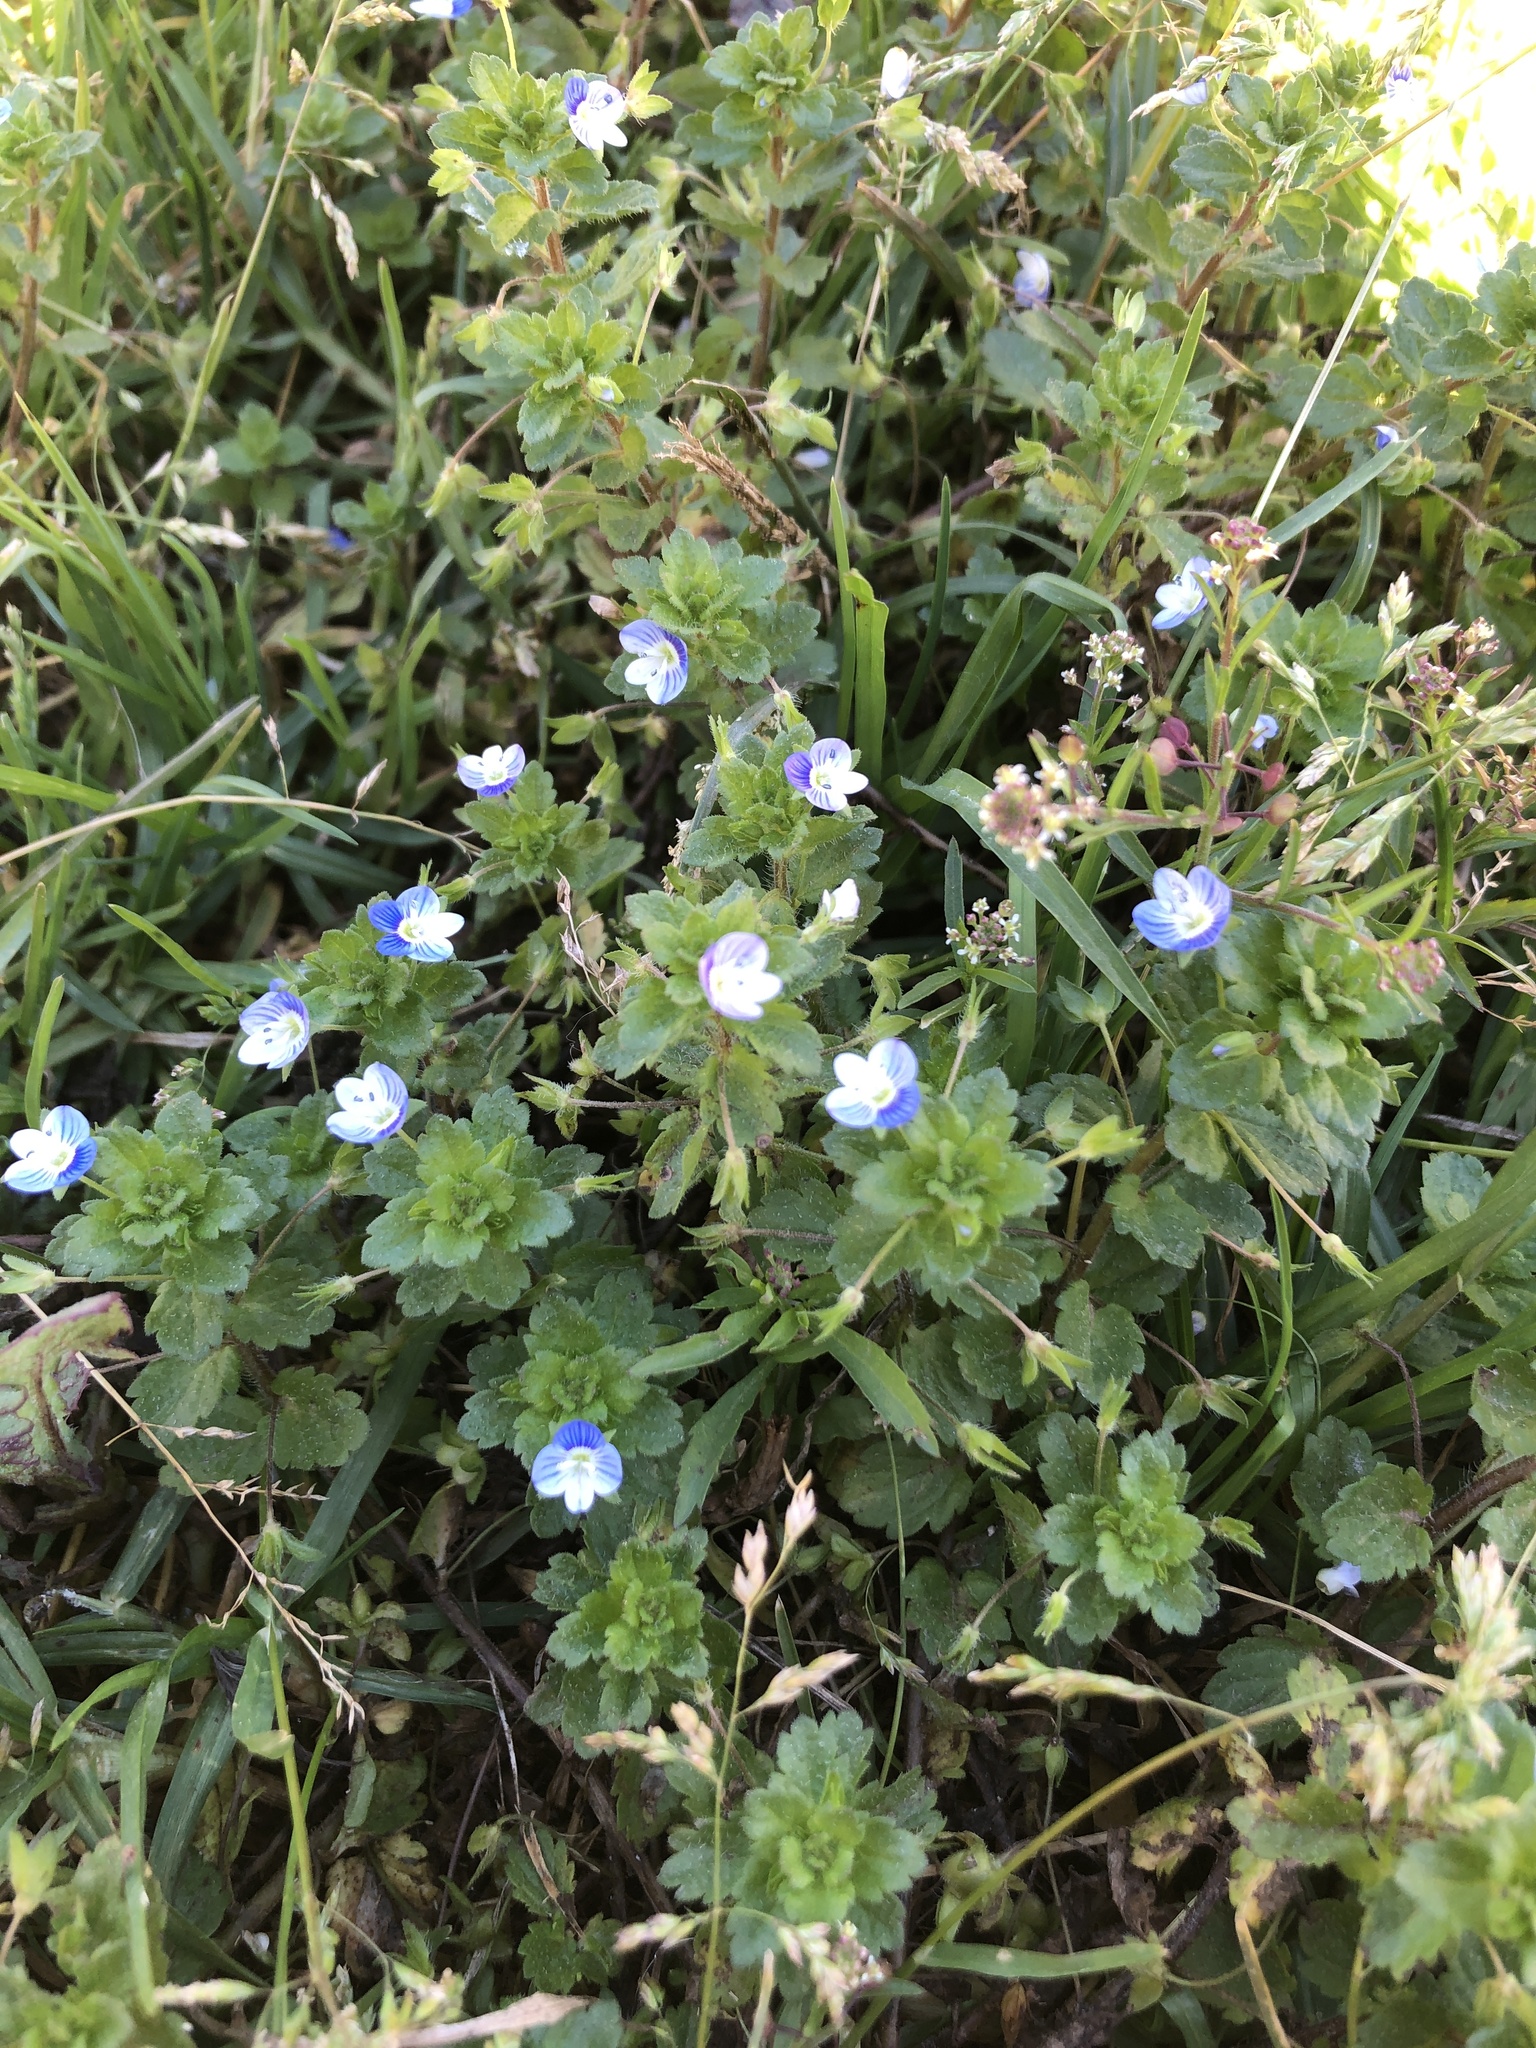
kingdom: Plantae
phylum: Tracheophyta
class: Magnoliopsida
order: Lamiales
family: Plantaginaceae
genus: Veronica
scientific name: Veronica persica
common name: Common field-speedwell
